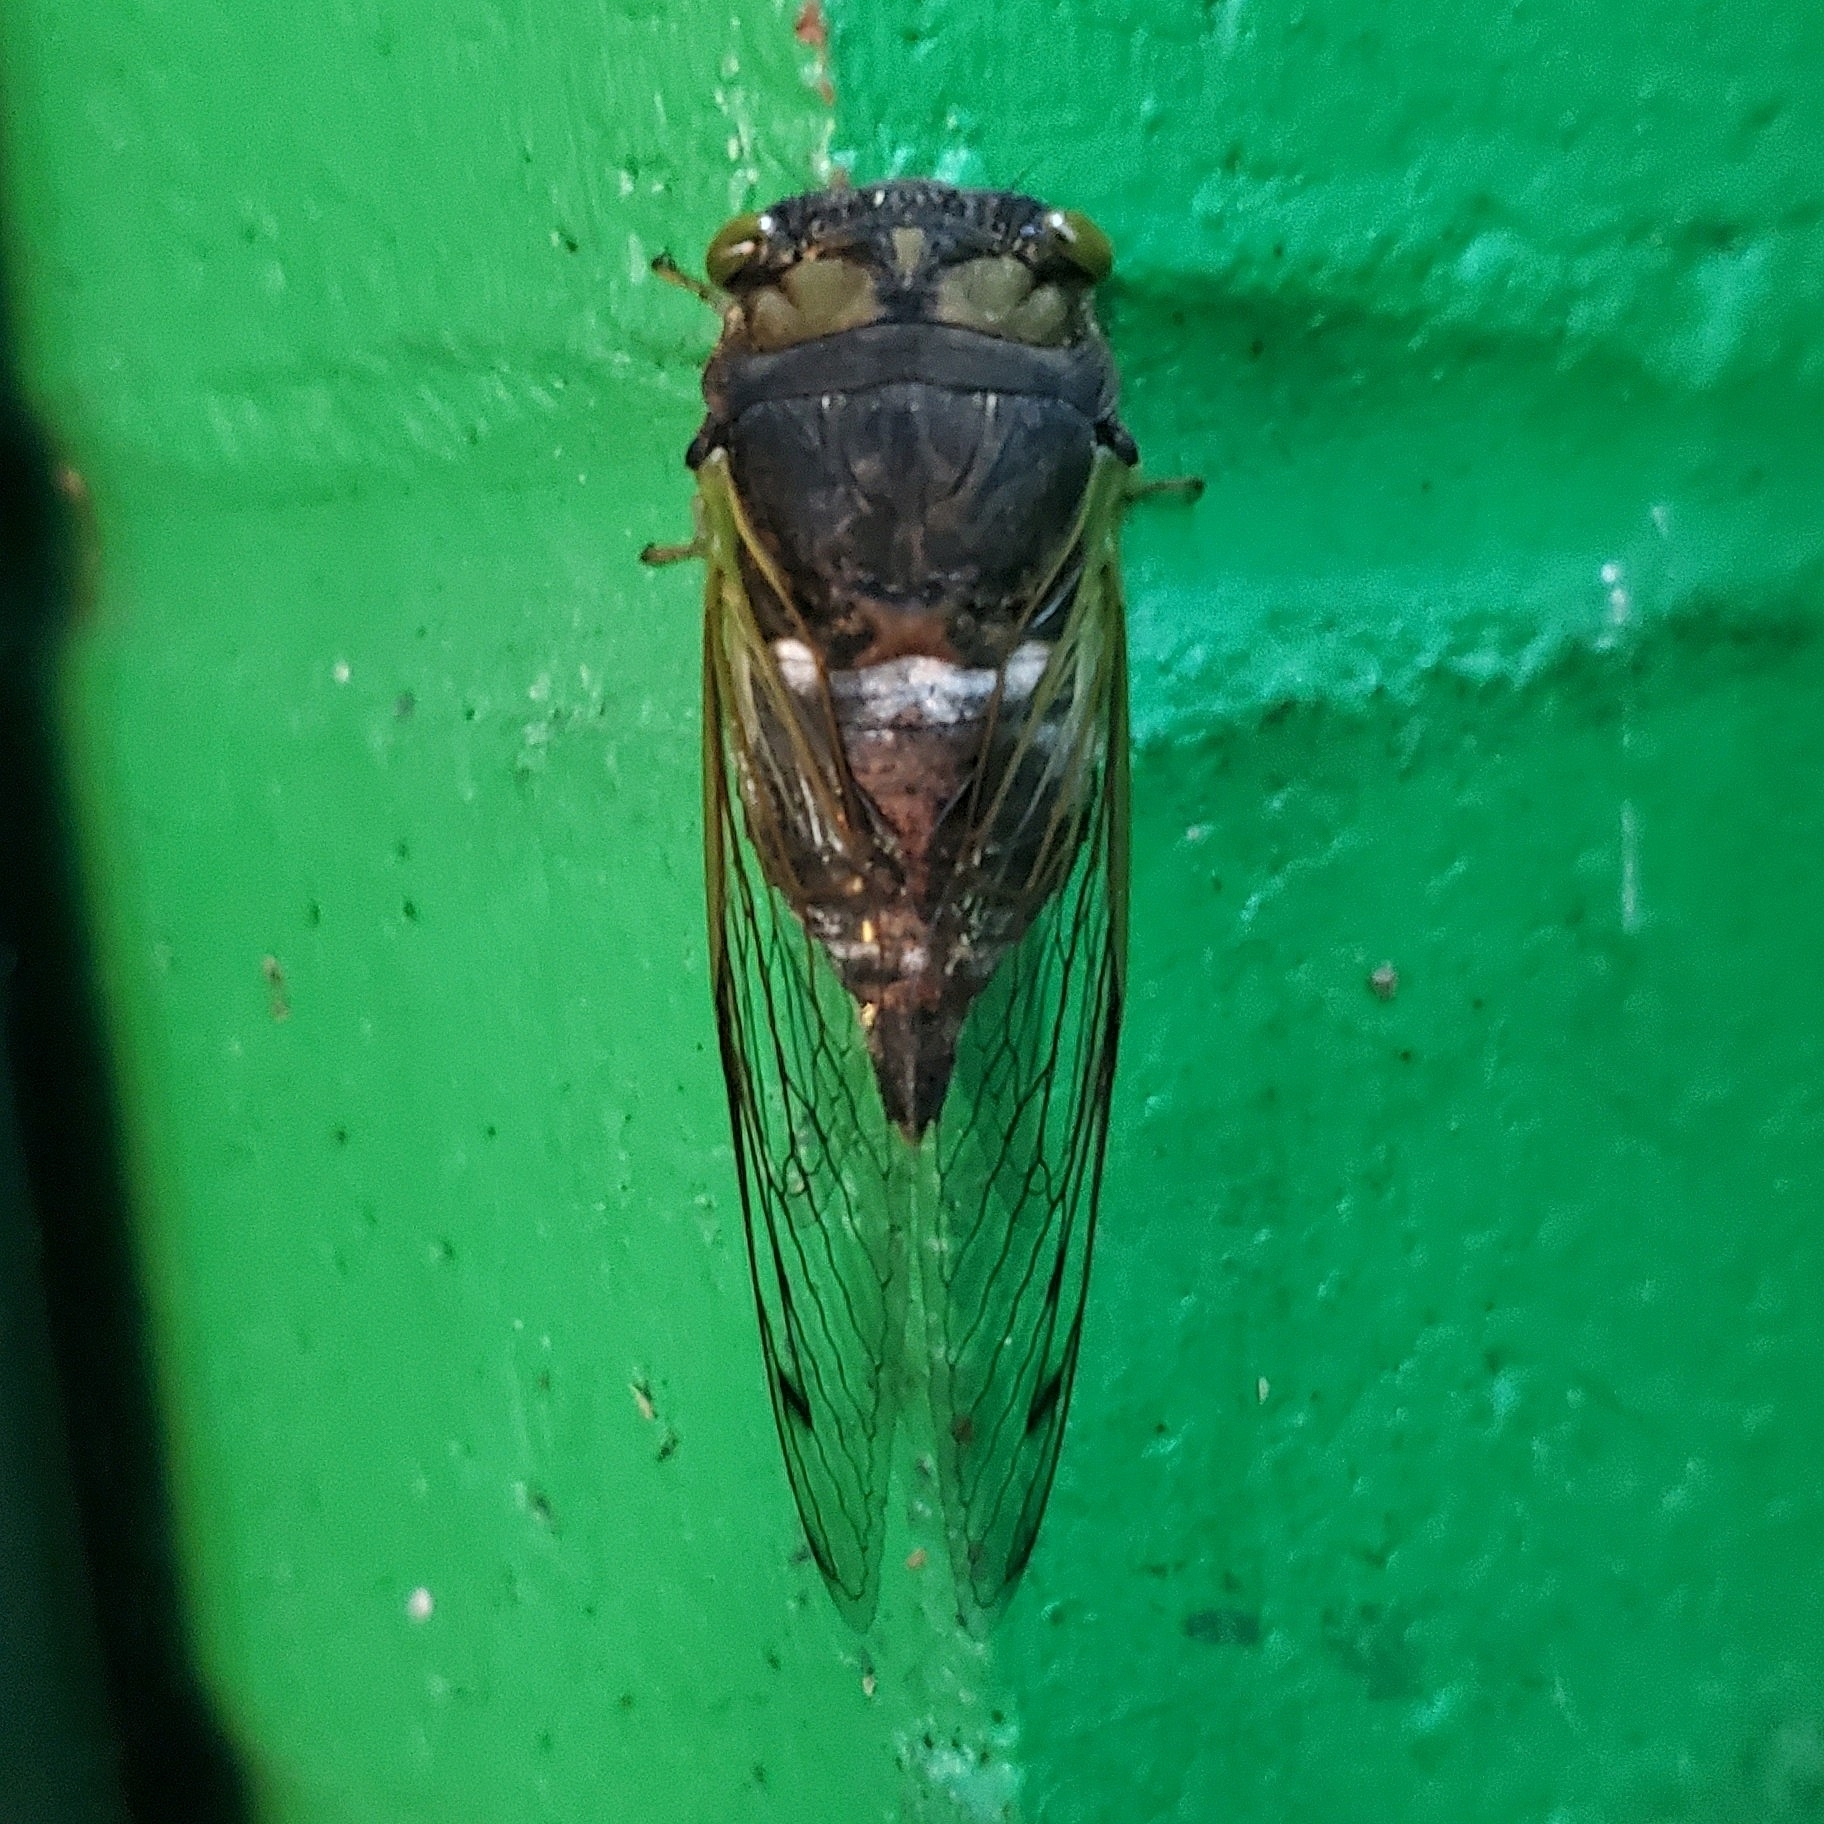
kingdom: Animalia
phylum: Arthropoda
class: Insecta
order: Hemiptera
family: Cicadidae
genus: Neotibicen
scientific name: Neotibicen tibicen
